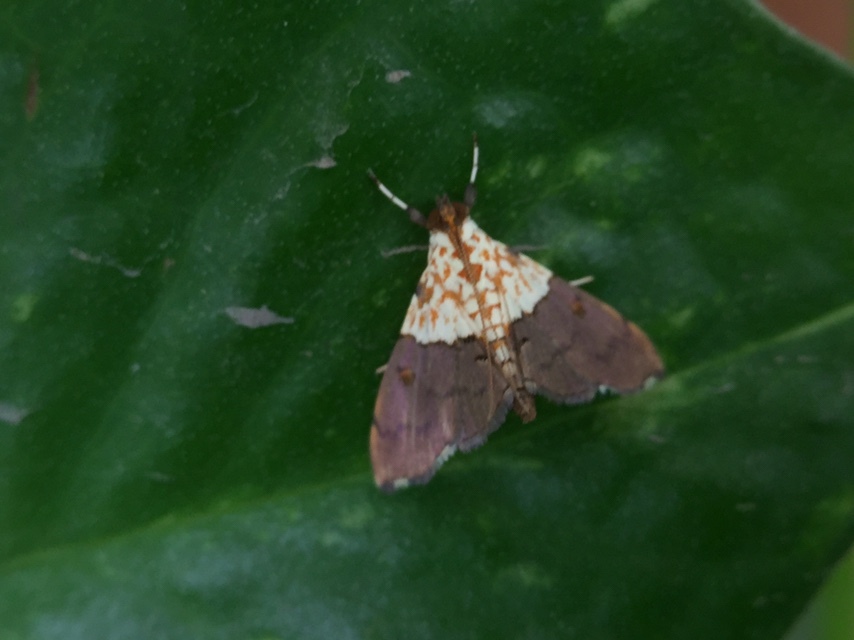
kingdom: Animalia
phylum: Arthropoda
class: Insecta
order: Lepidoptera
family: Crambidae
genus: Agrotera
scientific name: Agrotera basinotata
